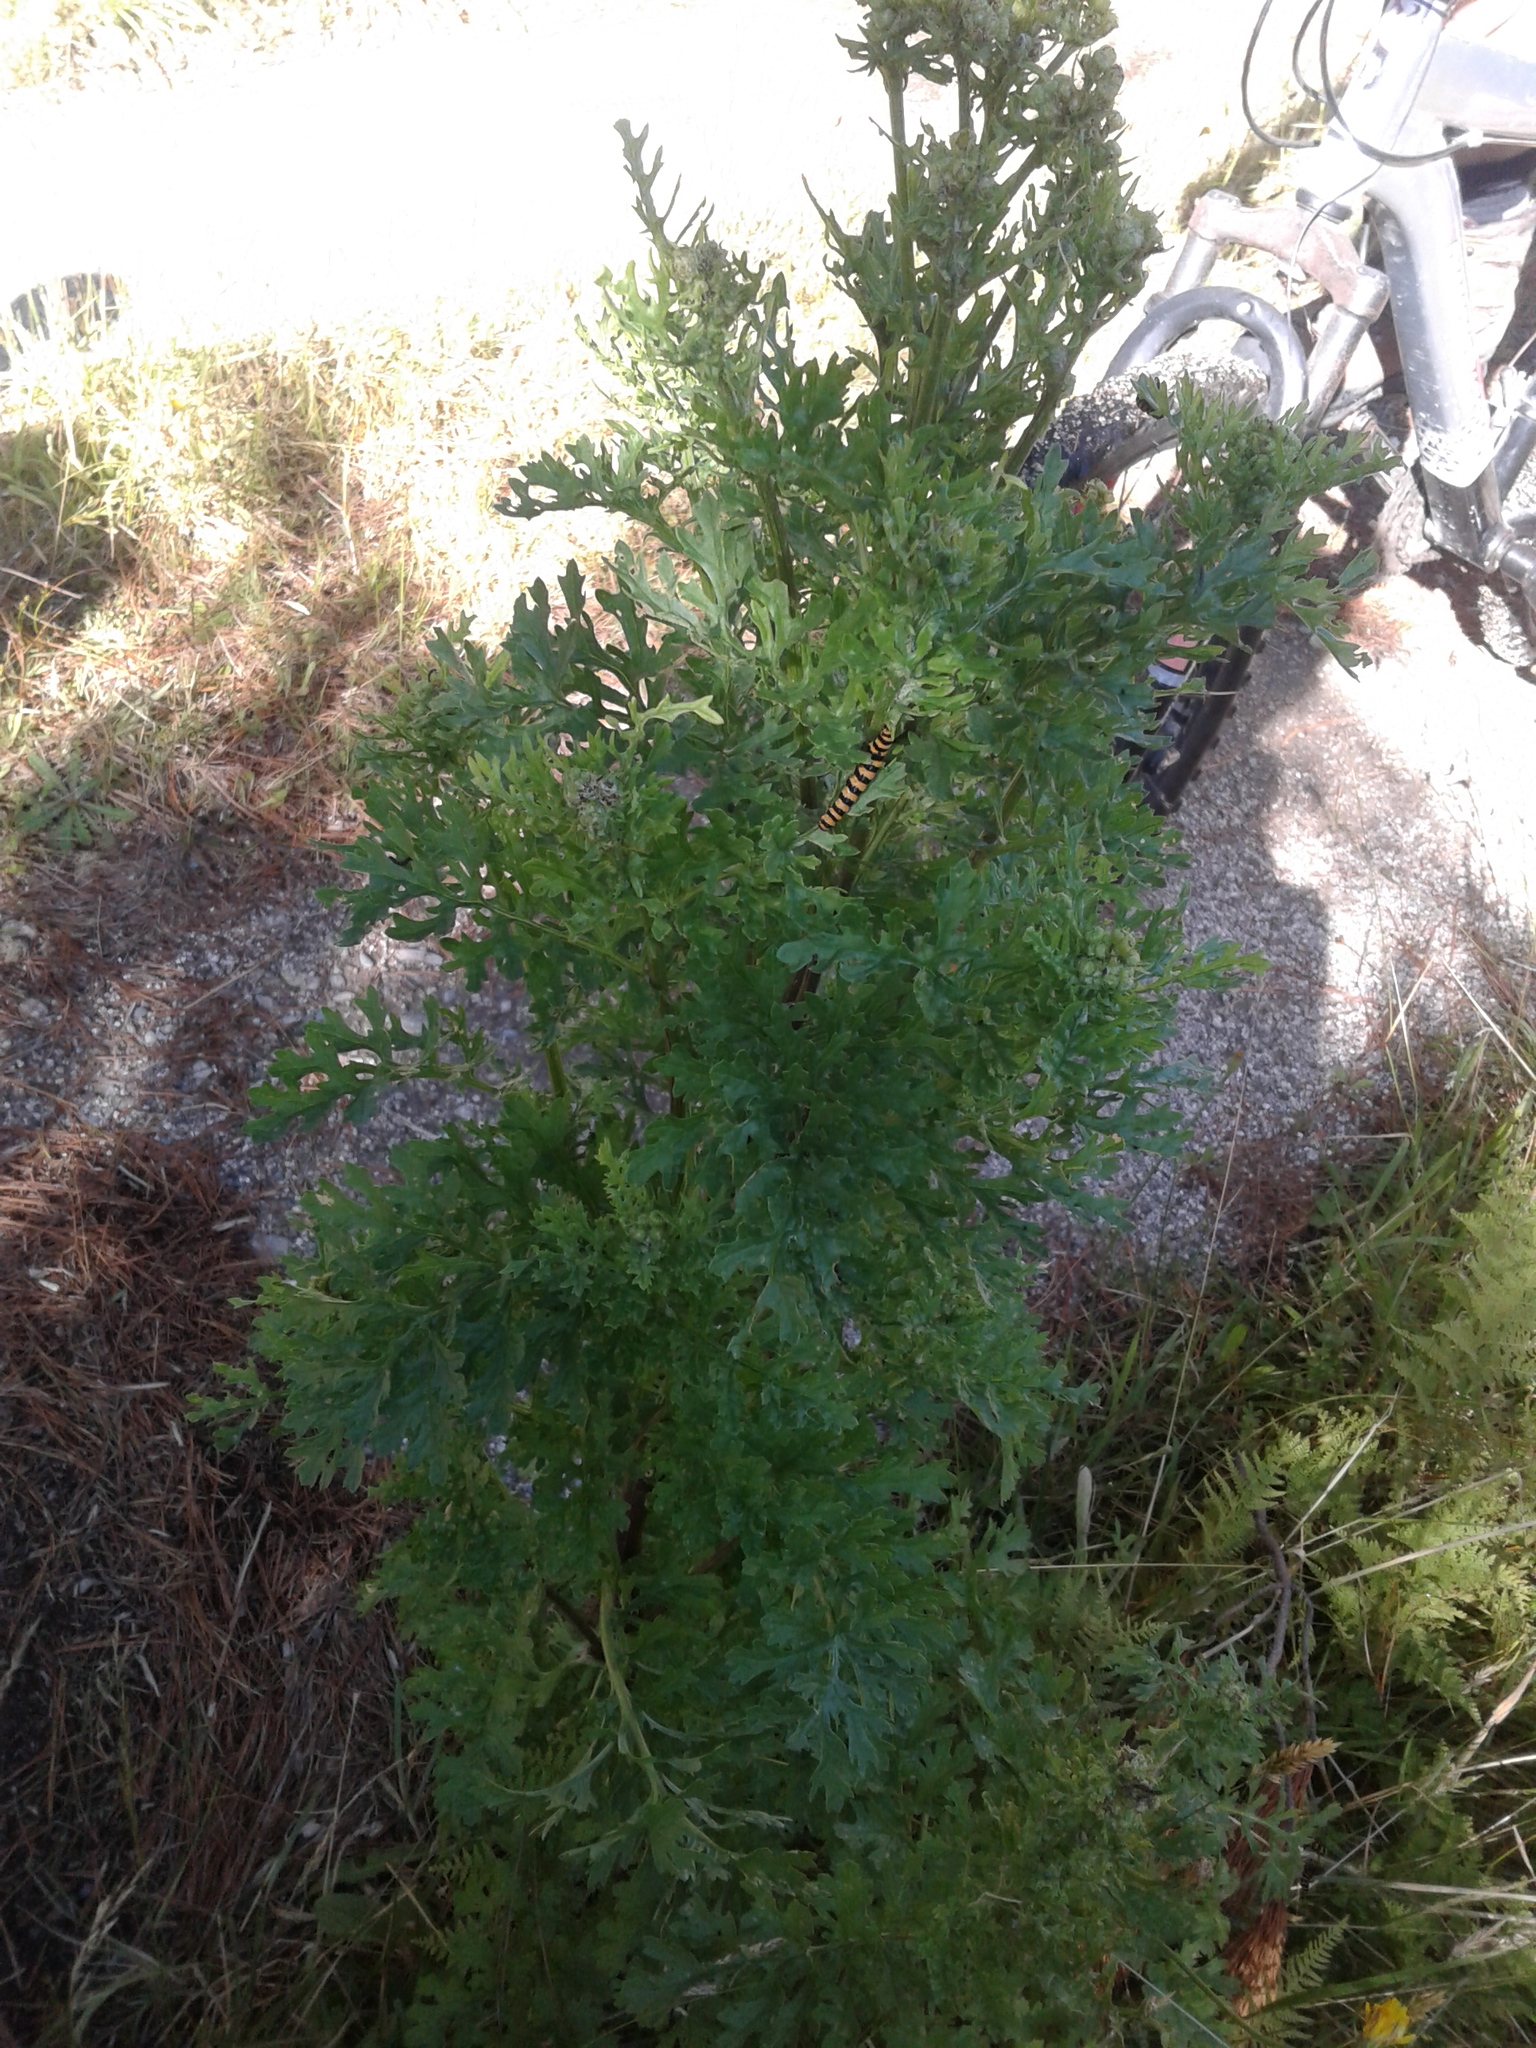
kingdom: Animalia
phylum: Arthropoda
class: Insecta
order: Lepidoptera
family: Erebidae
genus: Tyria
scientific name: Tyria jacobaeae
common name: Cinnabar
